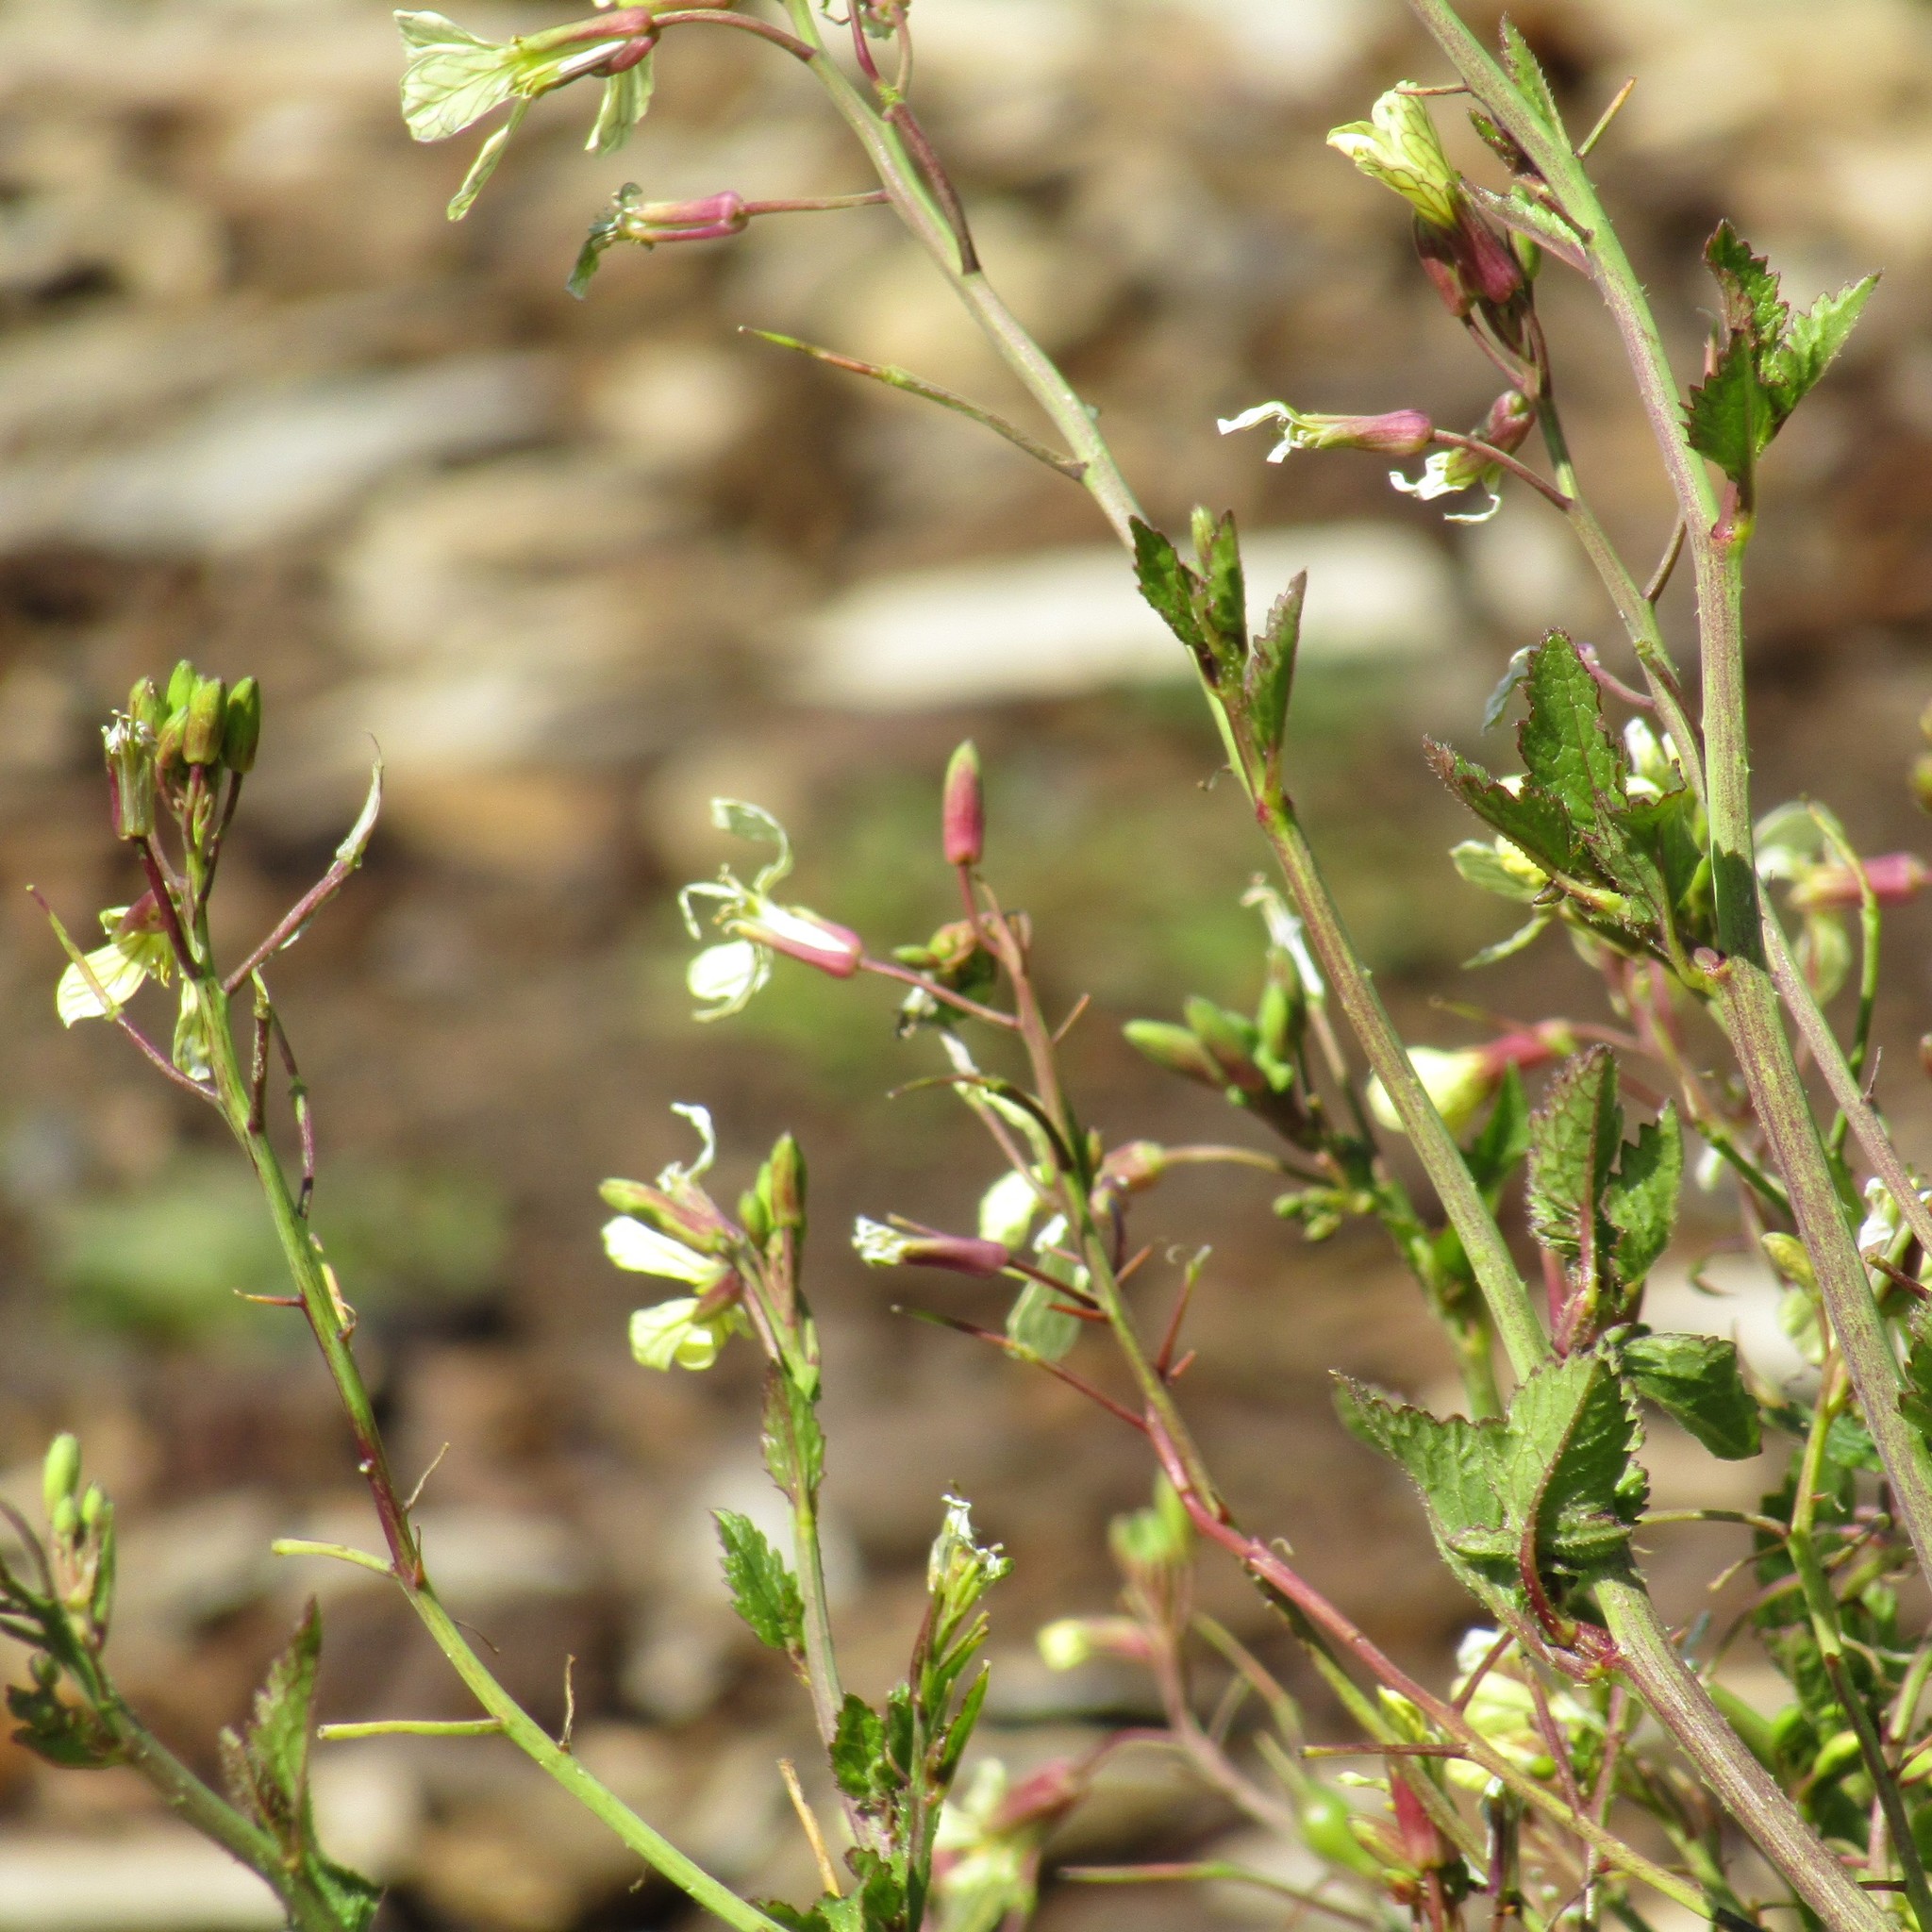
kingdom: Plantae
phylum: Tracheophyta
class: Magnoliopsida
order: Brassicales
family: Brassicaceae
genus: Raphanus
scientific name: Raphanus raphanistrum
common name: Wild radish
